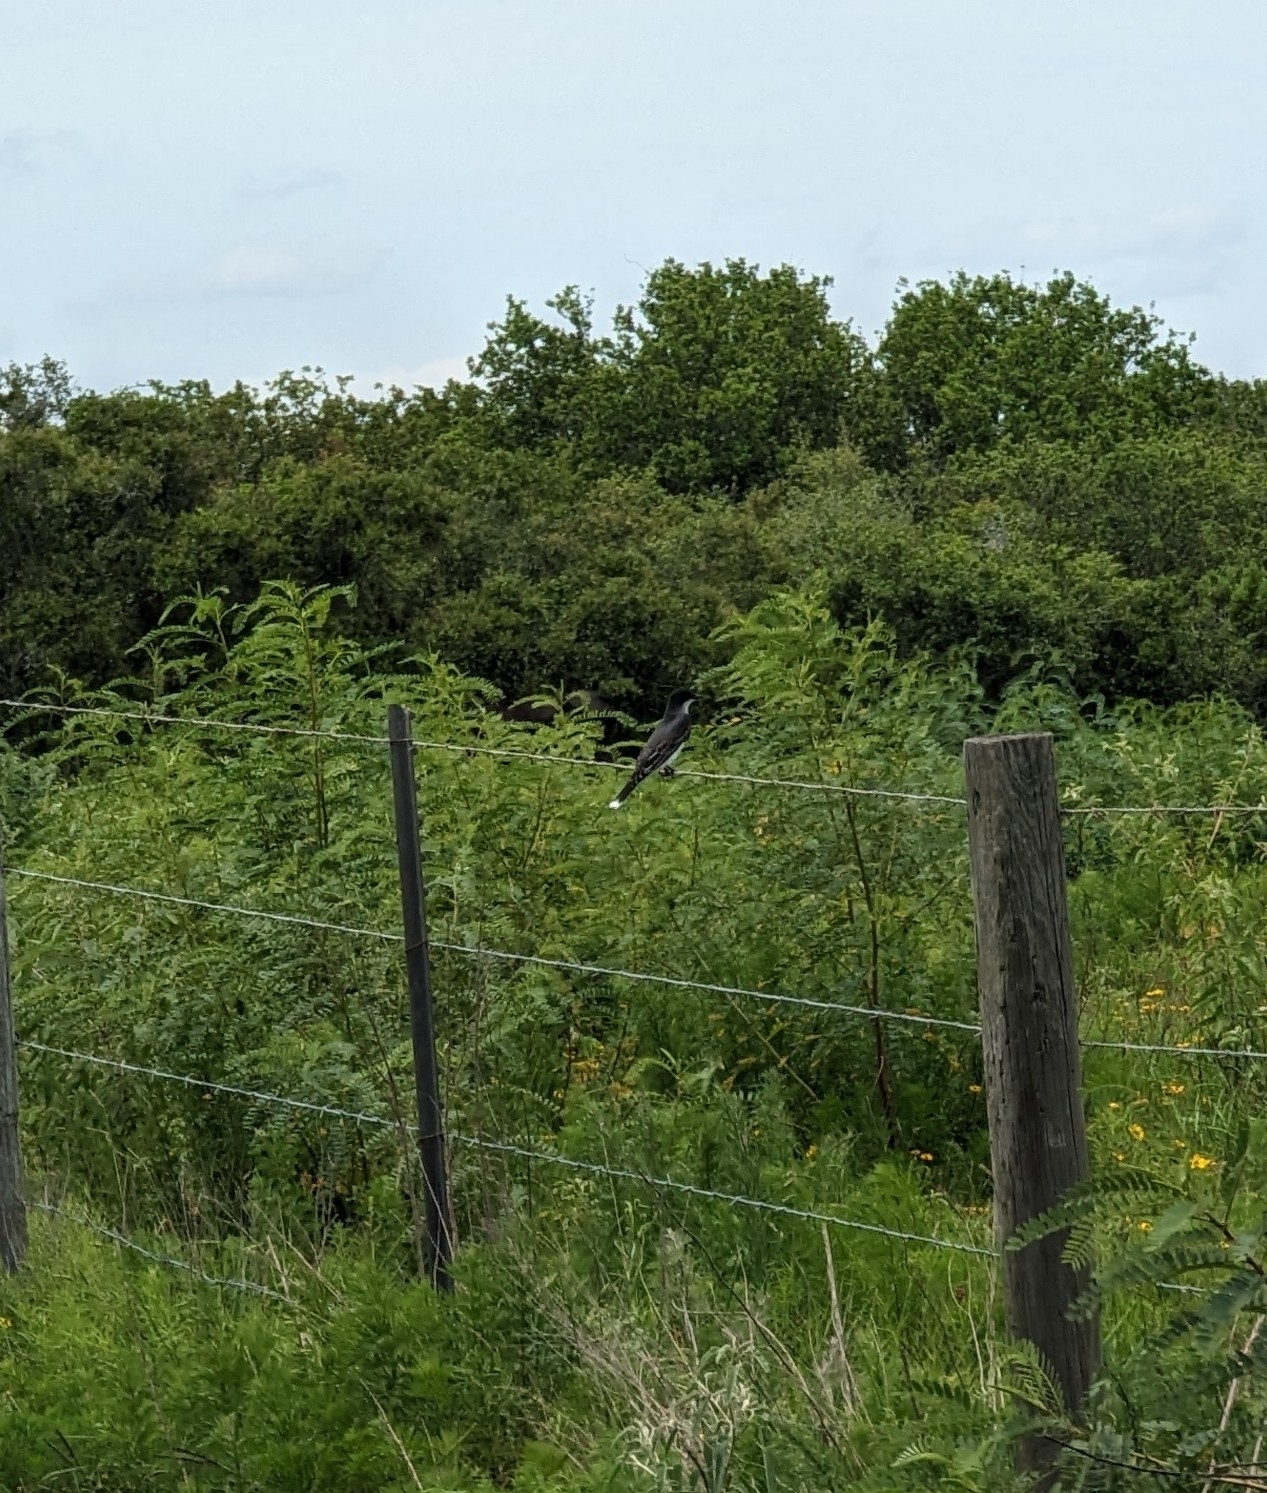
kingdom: Animalia
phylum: Chordata
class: Aves
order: Passeriformes
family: Tyrannidae
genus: Tyrannus
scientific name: Tyrannus tyrannus
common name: Eastern kingbird
